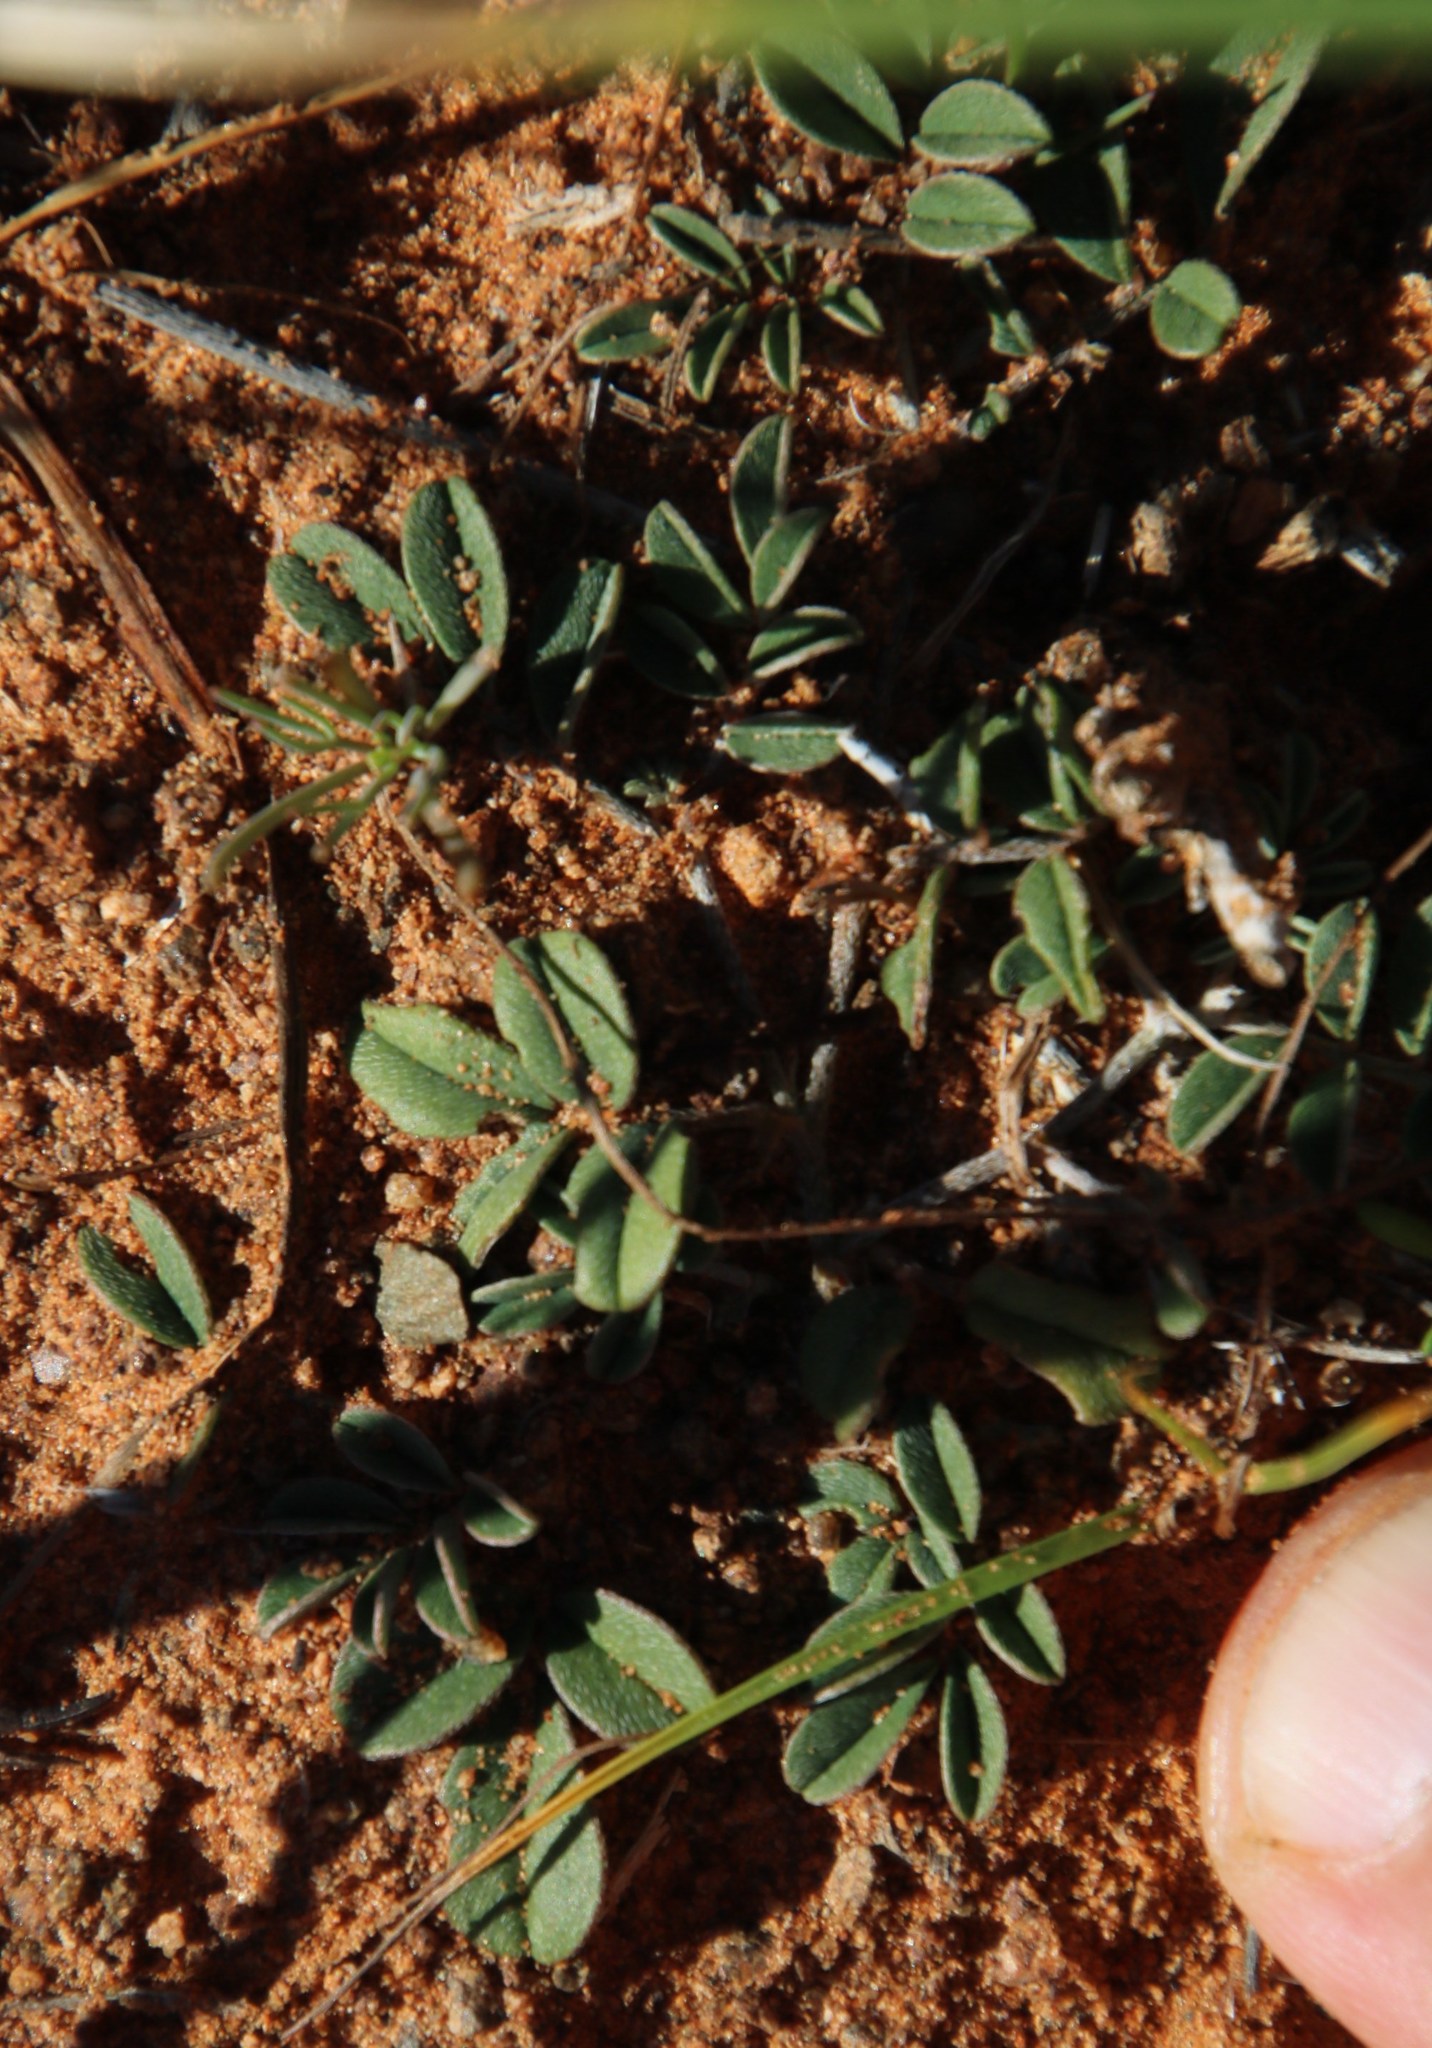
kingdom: Plantae
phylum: Tracheophyta
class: Magnoliopsida
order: Fabales
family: Fabaceae
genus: Indigofera
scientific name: Indigofera alternans
